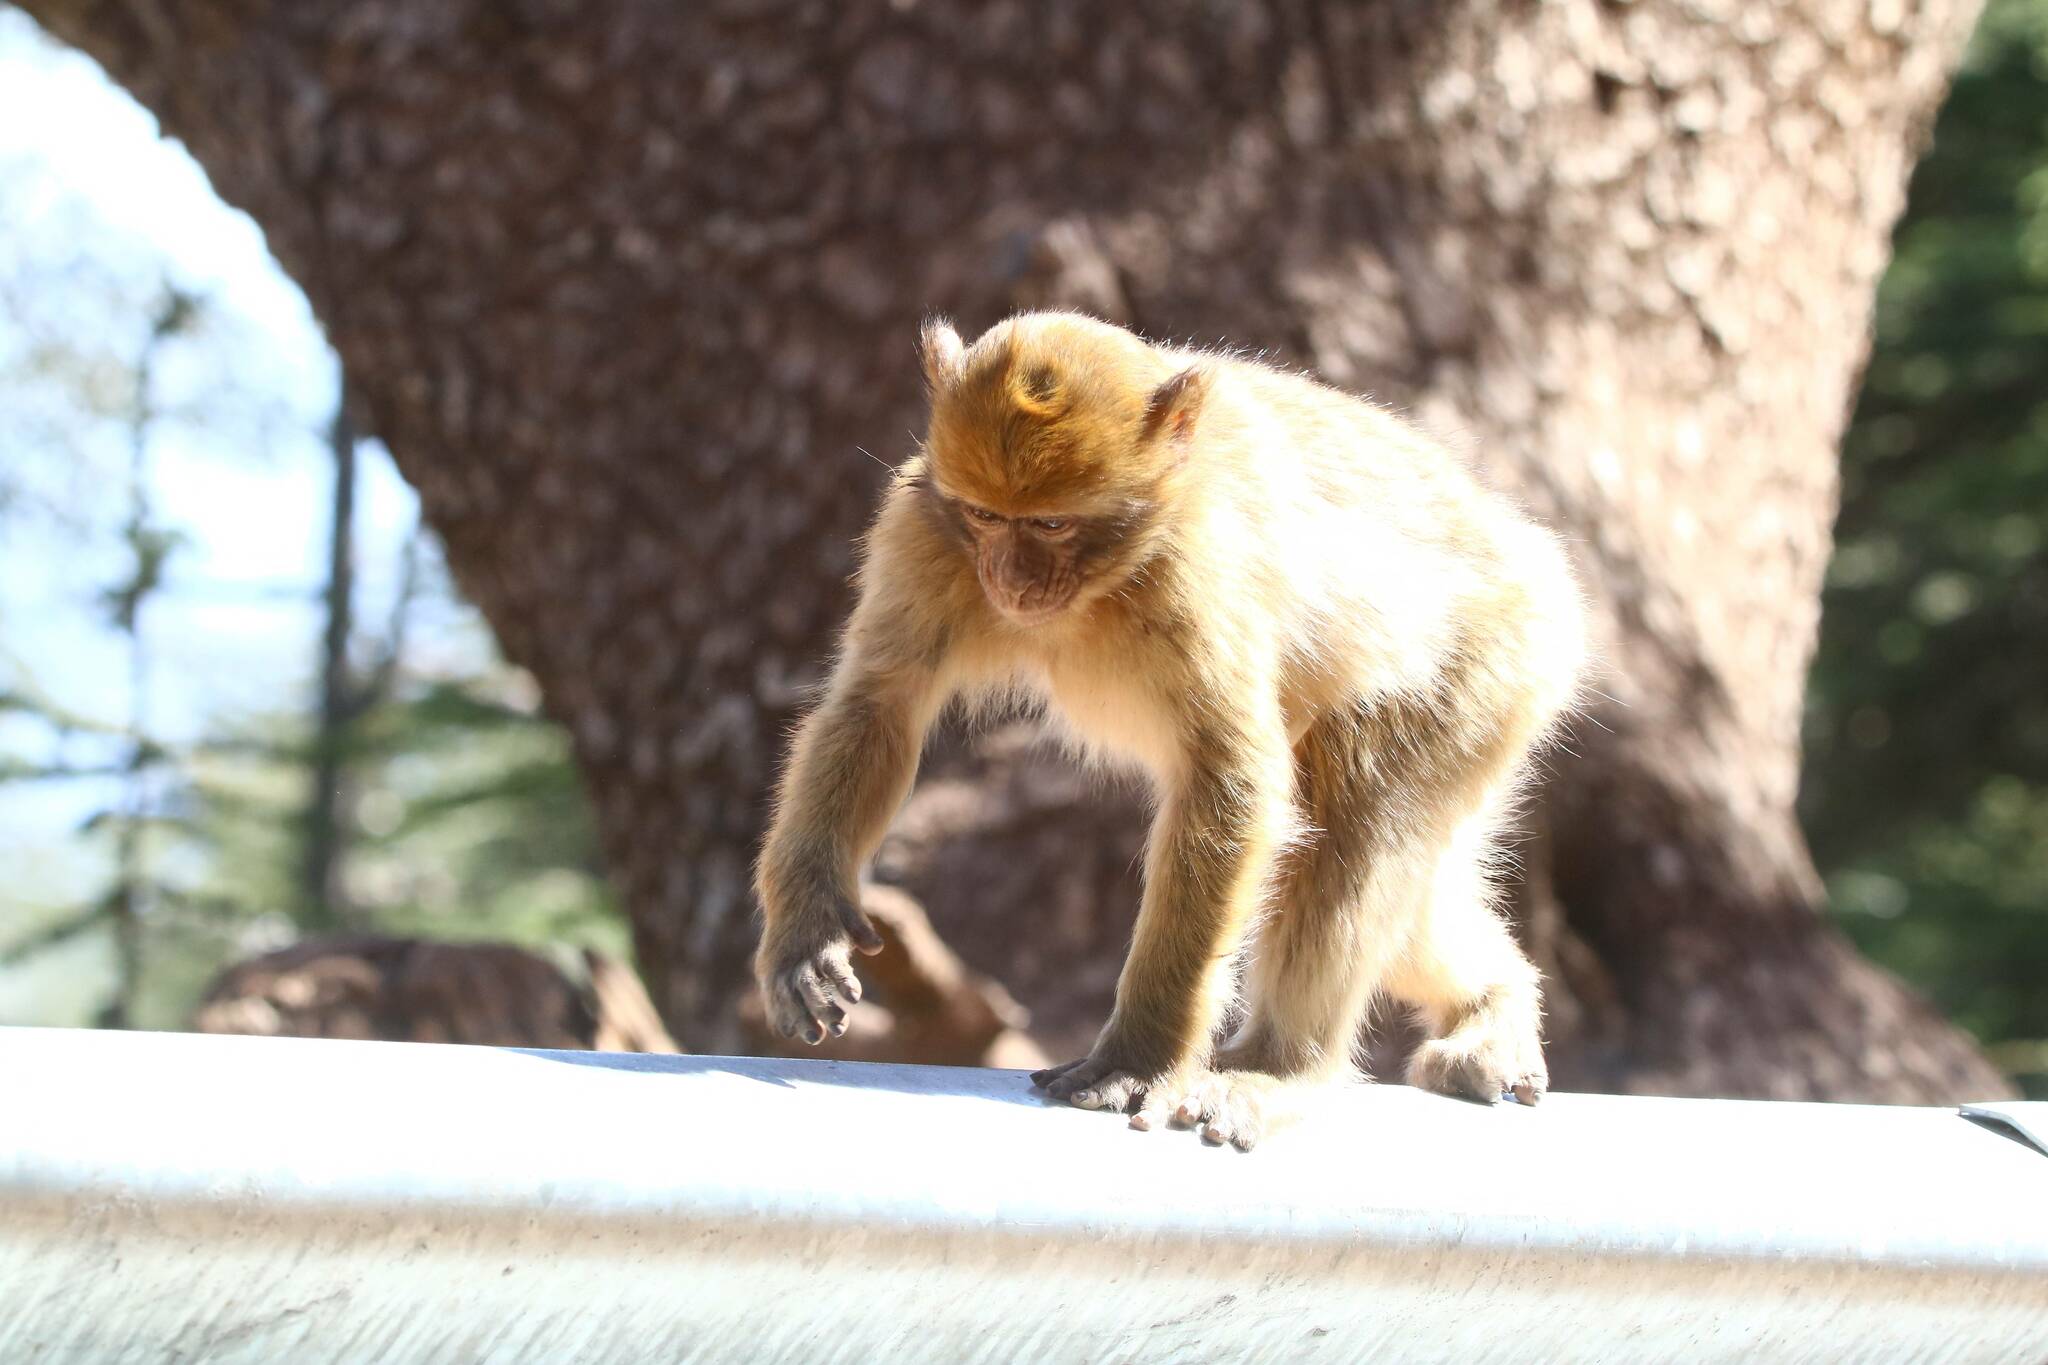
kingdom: Animalia
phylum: Chordata
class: Mammalia
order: Primates
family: Cercopithecidae
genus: Macaca
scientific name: Macaca sylvanus
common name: Barbary macaque
